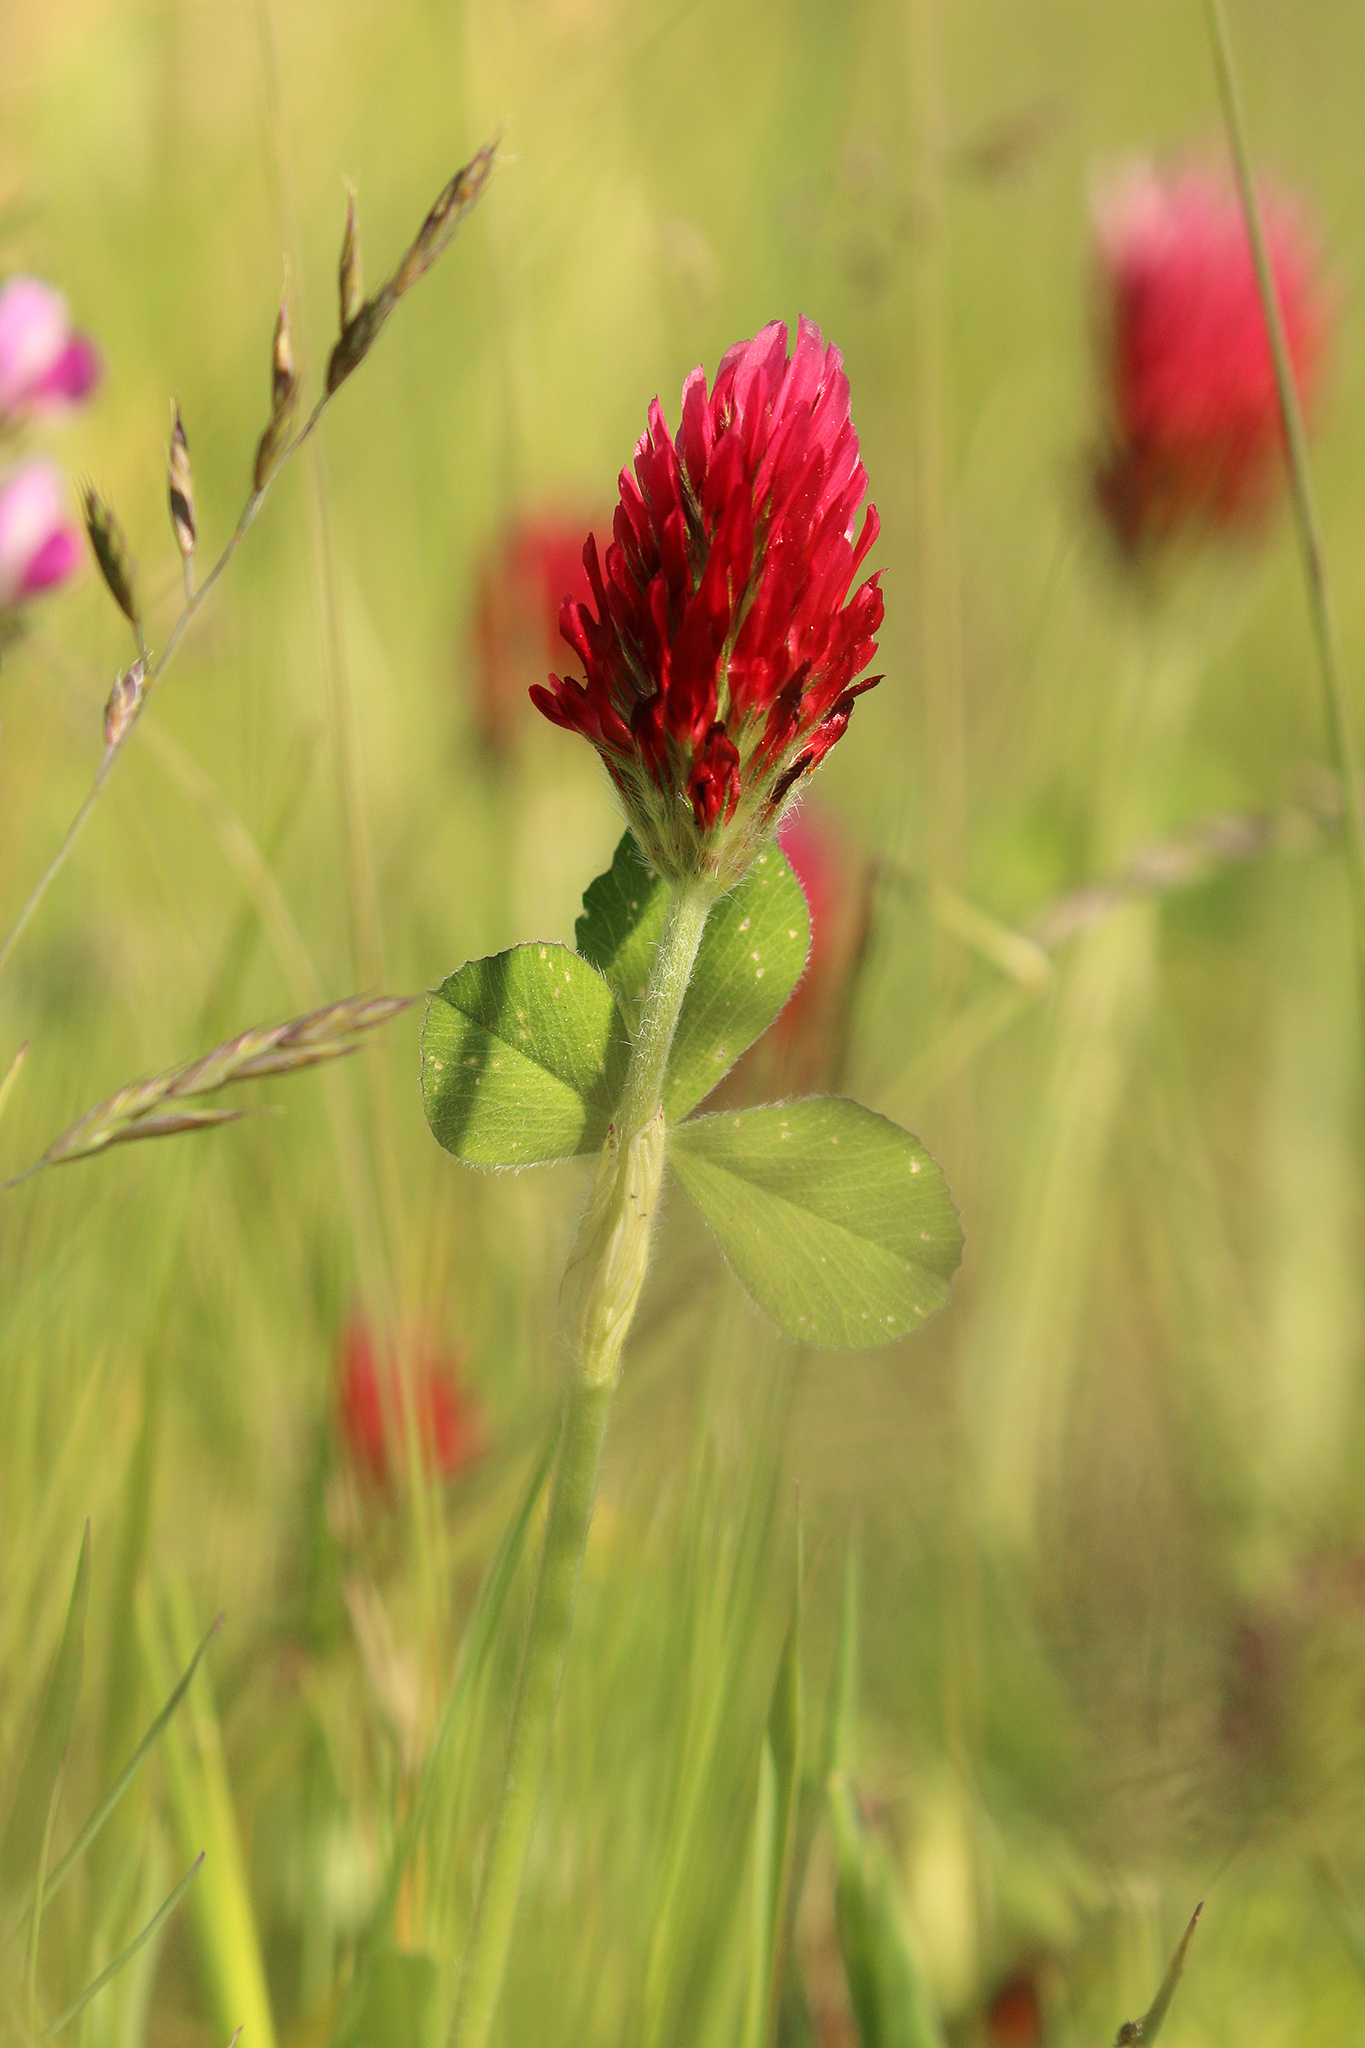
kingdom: Plantae
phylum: Tracheophyta
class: Magnoliopsida
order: Fabales
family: Fabaceae
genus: Trifolium
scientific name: Trifolium incarnatum
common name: Crimson clover
